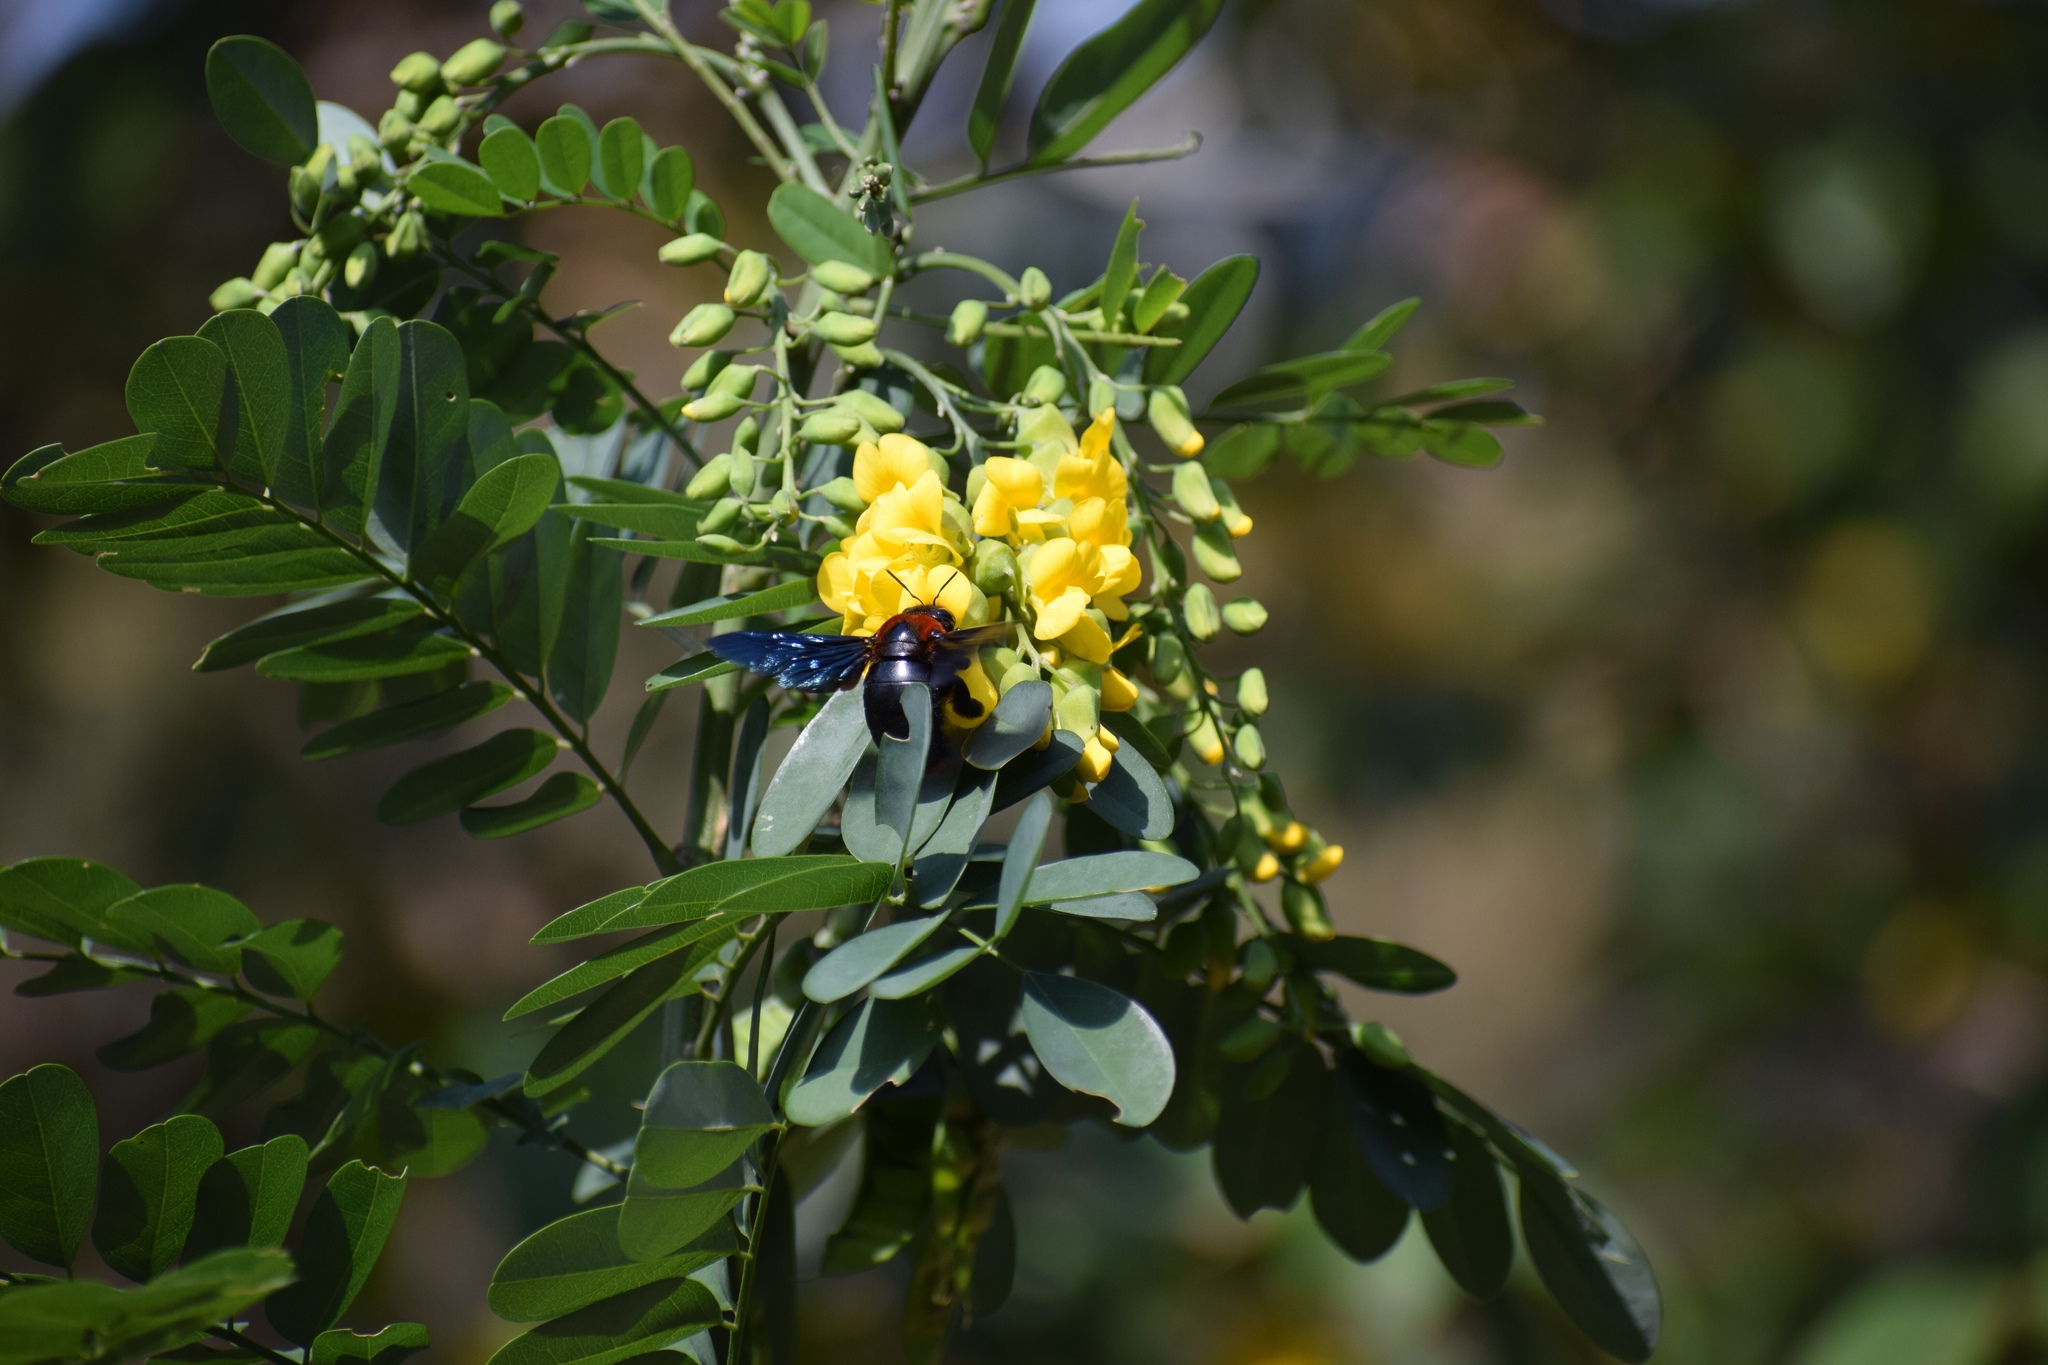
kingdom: Animalia
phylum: Arthropoda
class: Insecta
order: Hymenoptera
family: Apidae
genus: Xylocopa
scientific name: Xylocopa flavorufa
